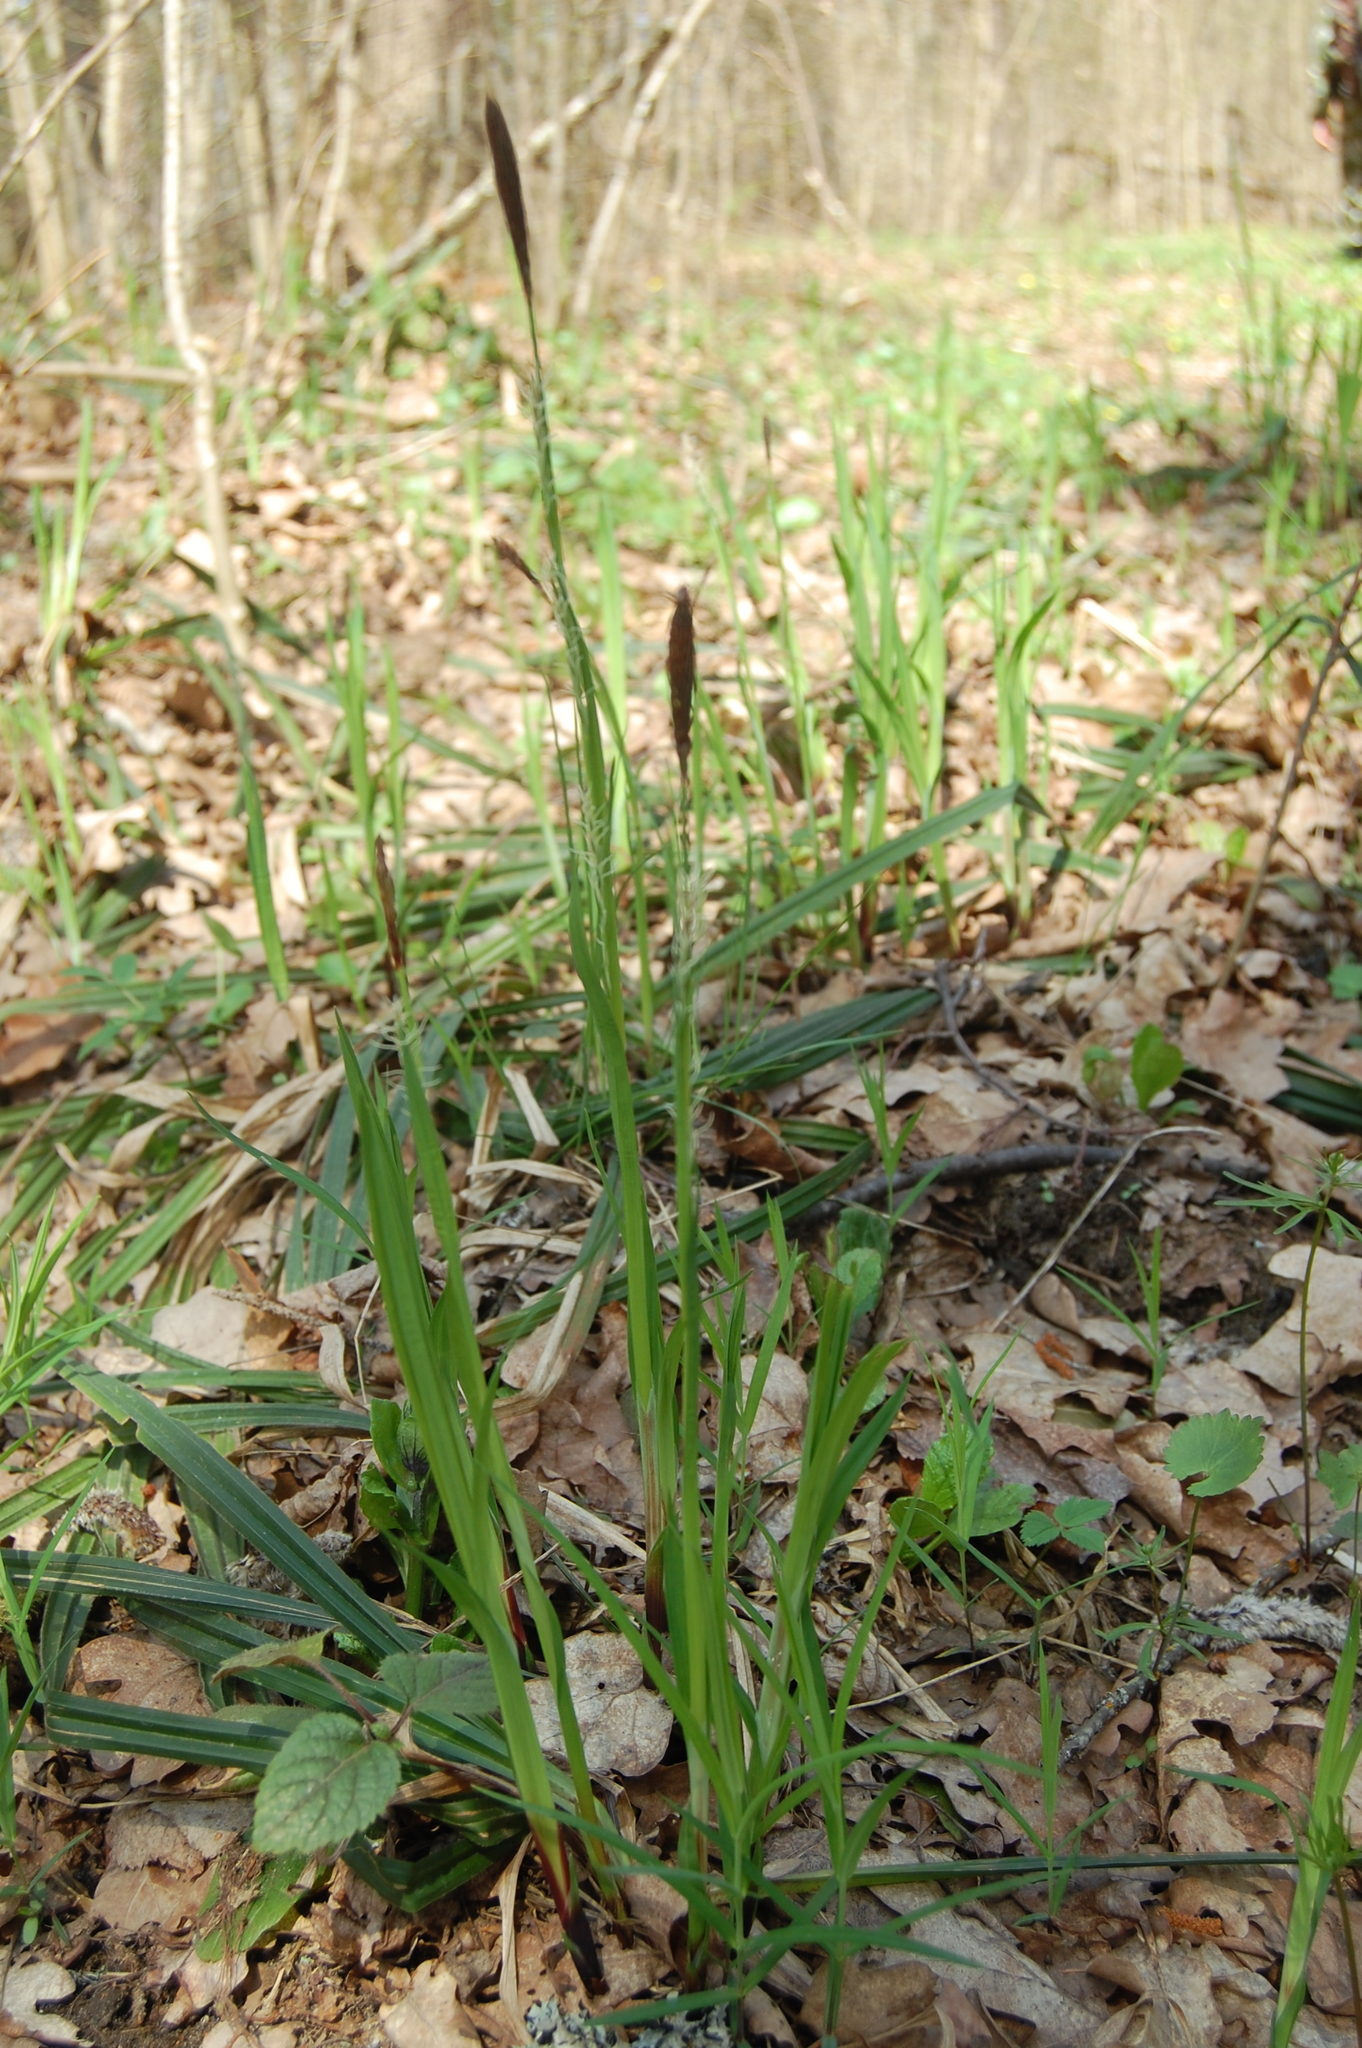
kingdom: Plantae
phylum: Tracheophyta
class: Liliopsida
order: Poales
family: Cyperaceae
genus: Carex
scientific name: Carex pilosa
